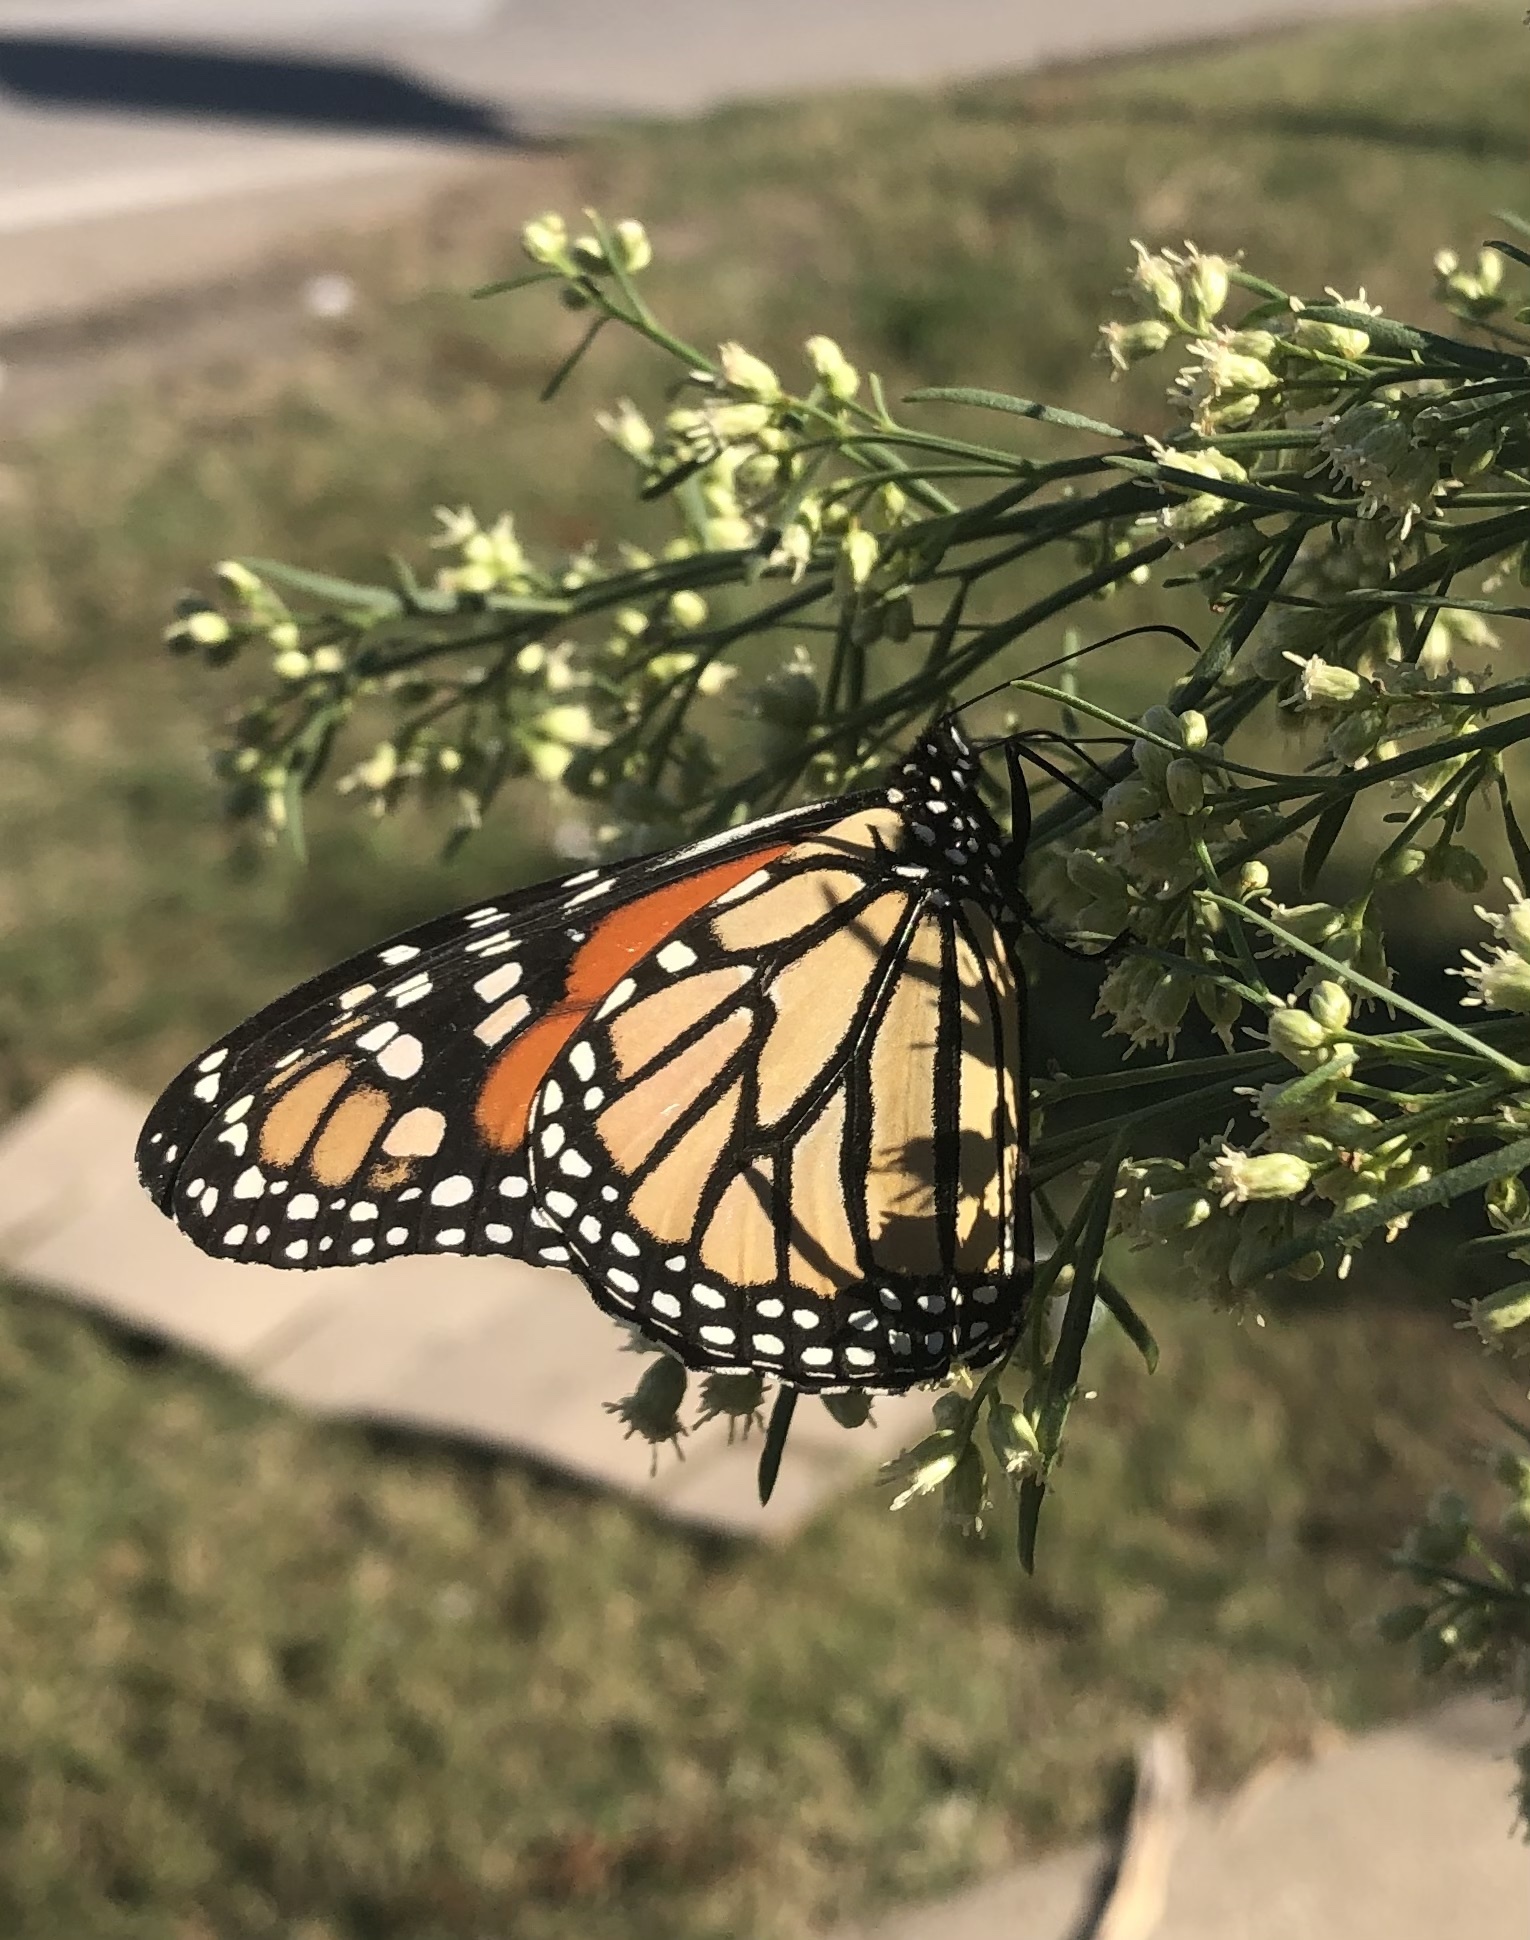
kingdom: Animalia
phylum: Arthropoda
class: Insecta
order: Lepidoptera
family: Nymphalidae
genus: Danaus
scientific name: Danaus plexippus
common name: Monarch
